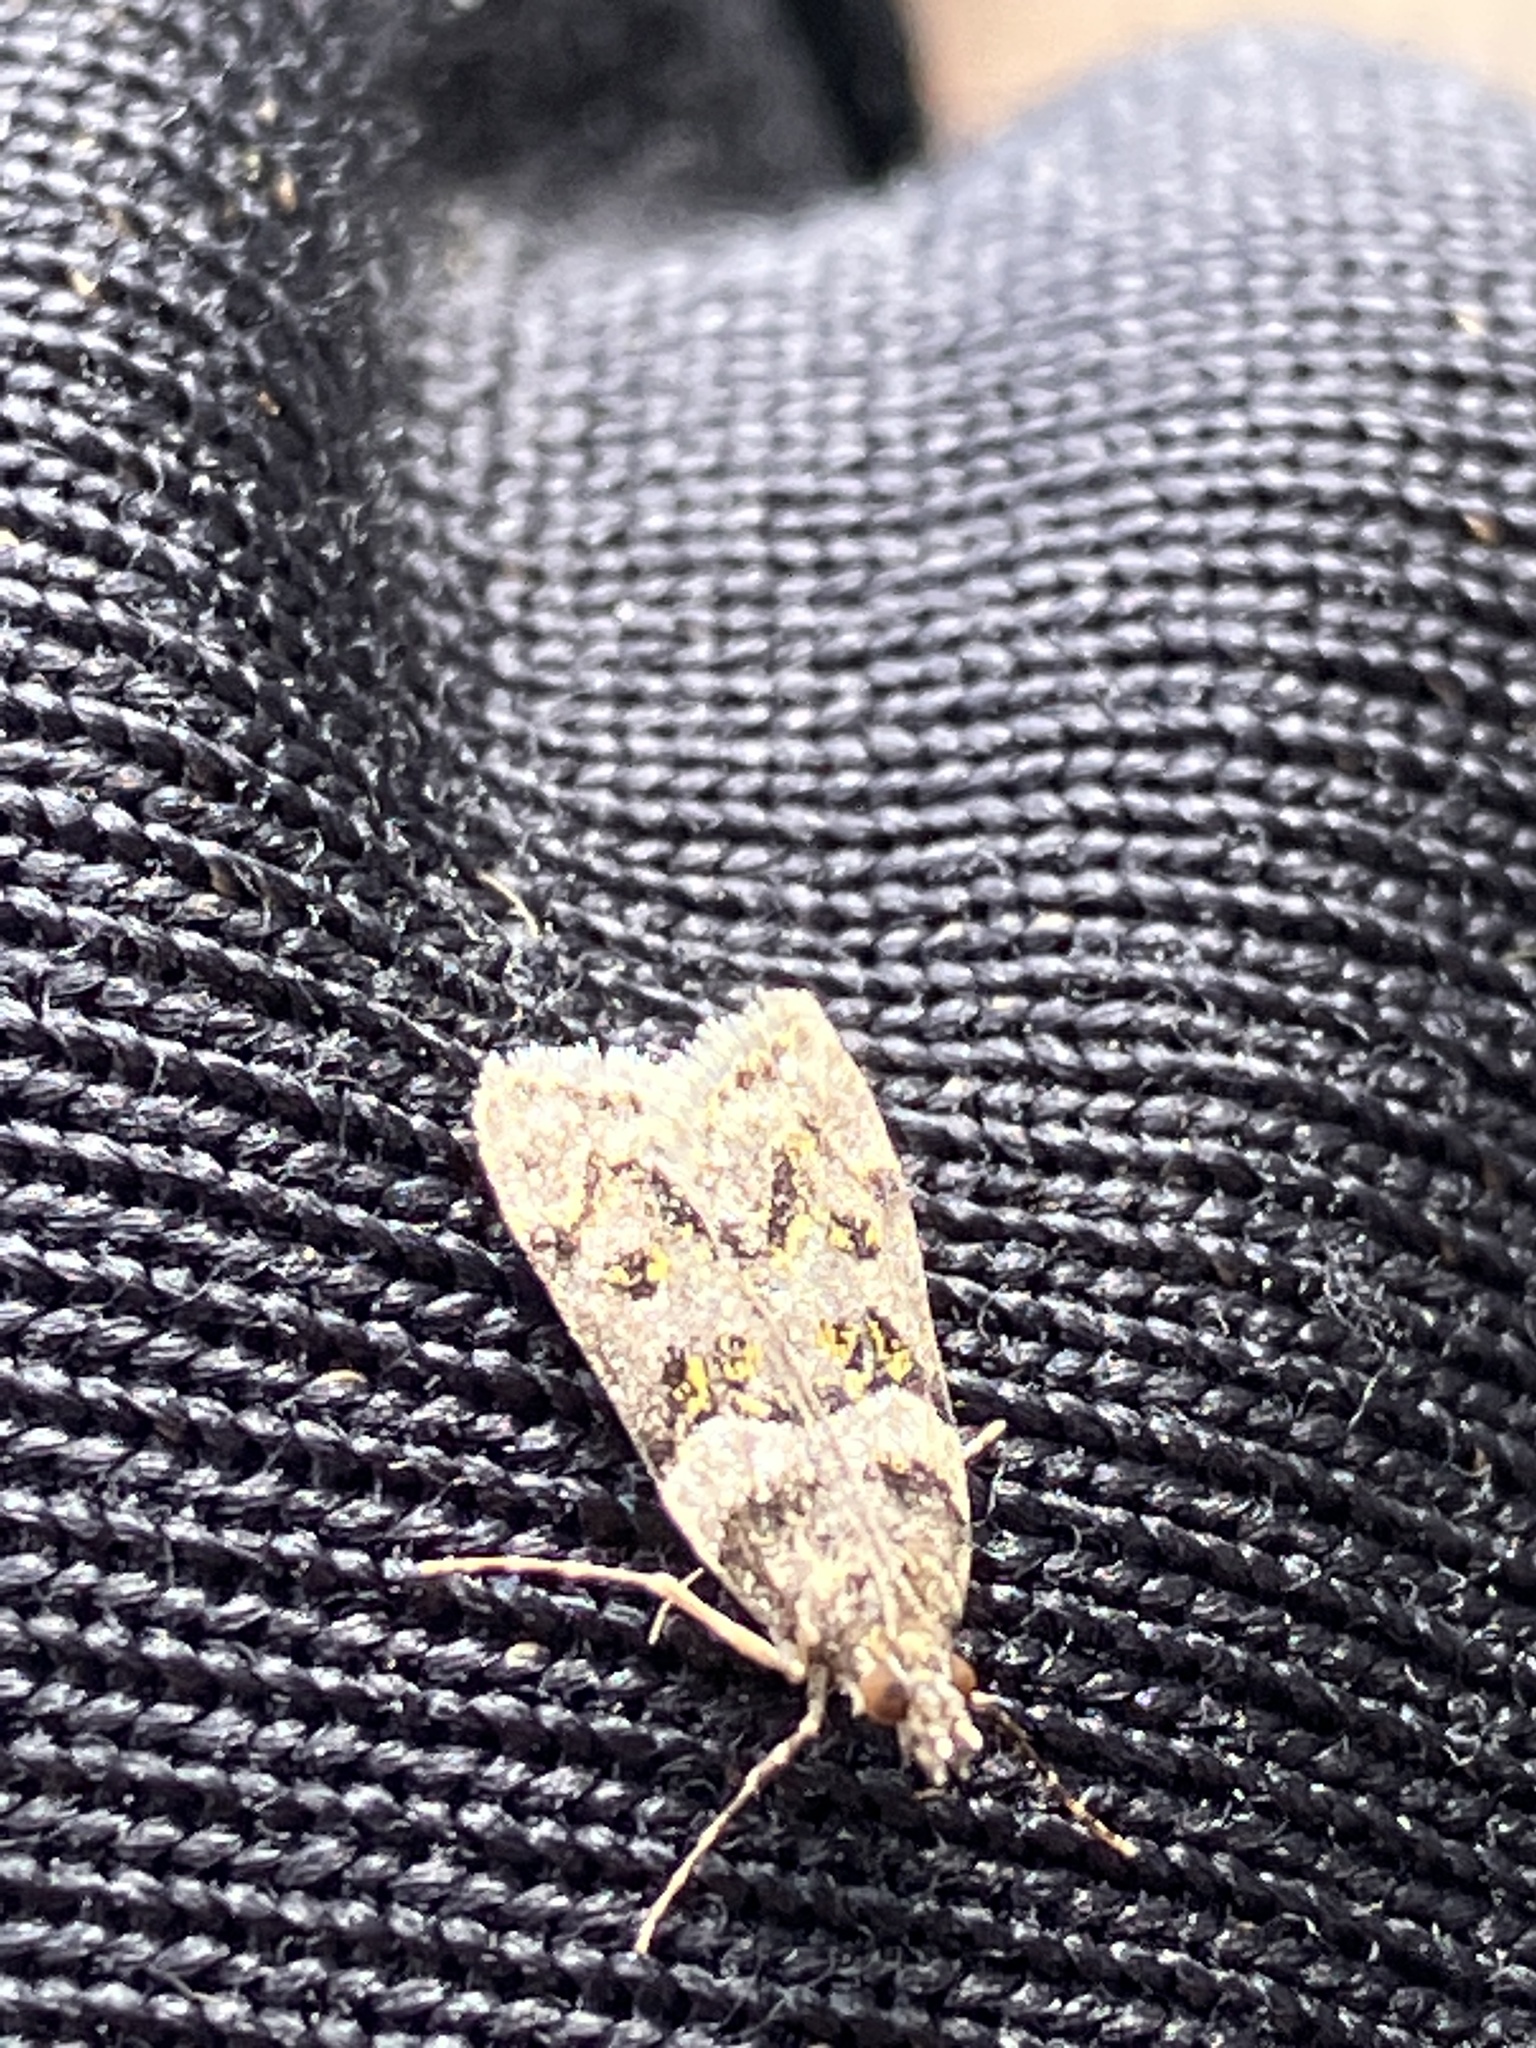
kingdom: Animalia
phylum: Arthropoda
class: Insecta
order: Lepidoptera
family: Crambidae
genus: Scoparia
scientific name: Scoparia nigritalis
